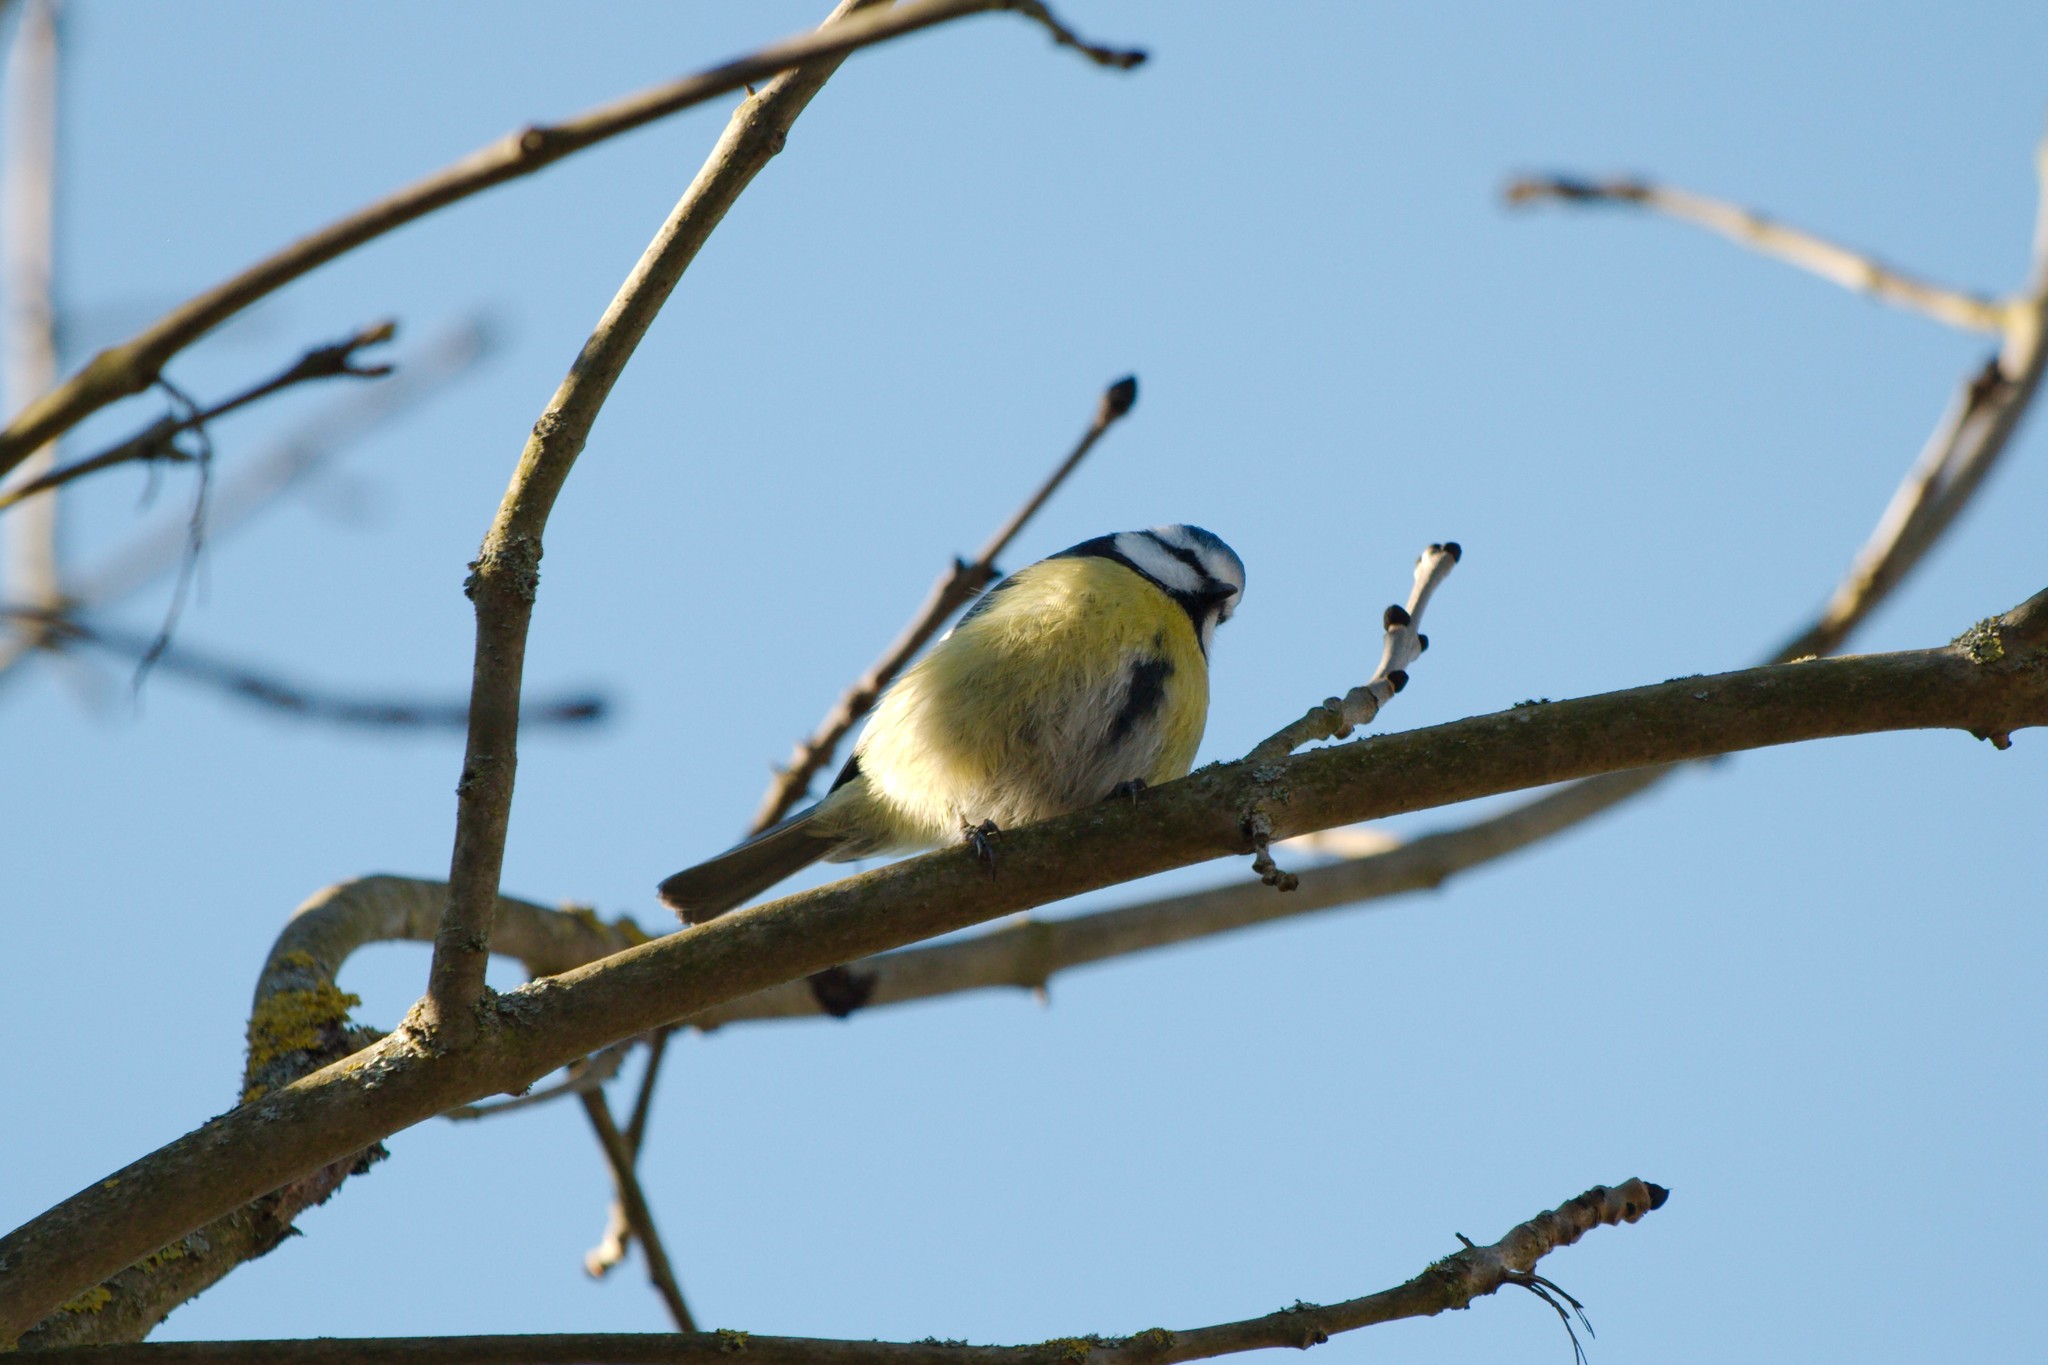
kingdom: Animalia
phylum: Chordata
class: Aves
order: Passeriformes
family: Paridae
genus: Cyanistes
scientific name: Cyanistes caeruleus
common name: Eurasian blue tit
